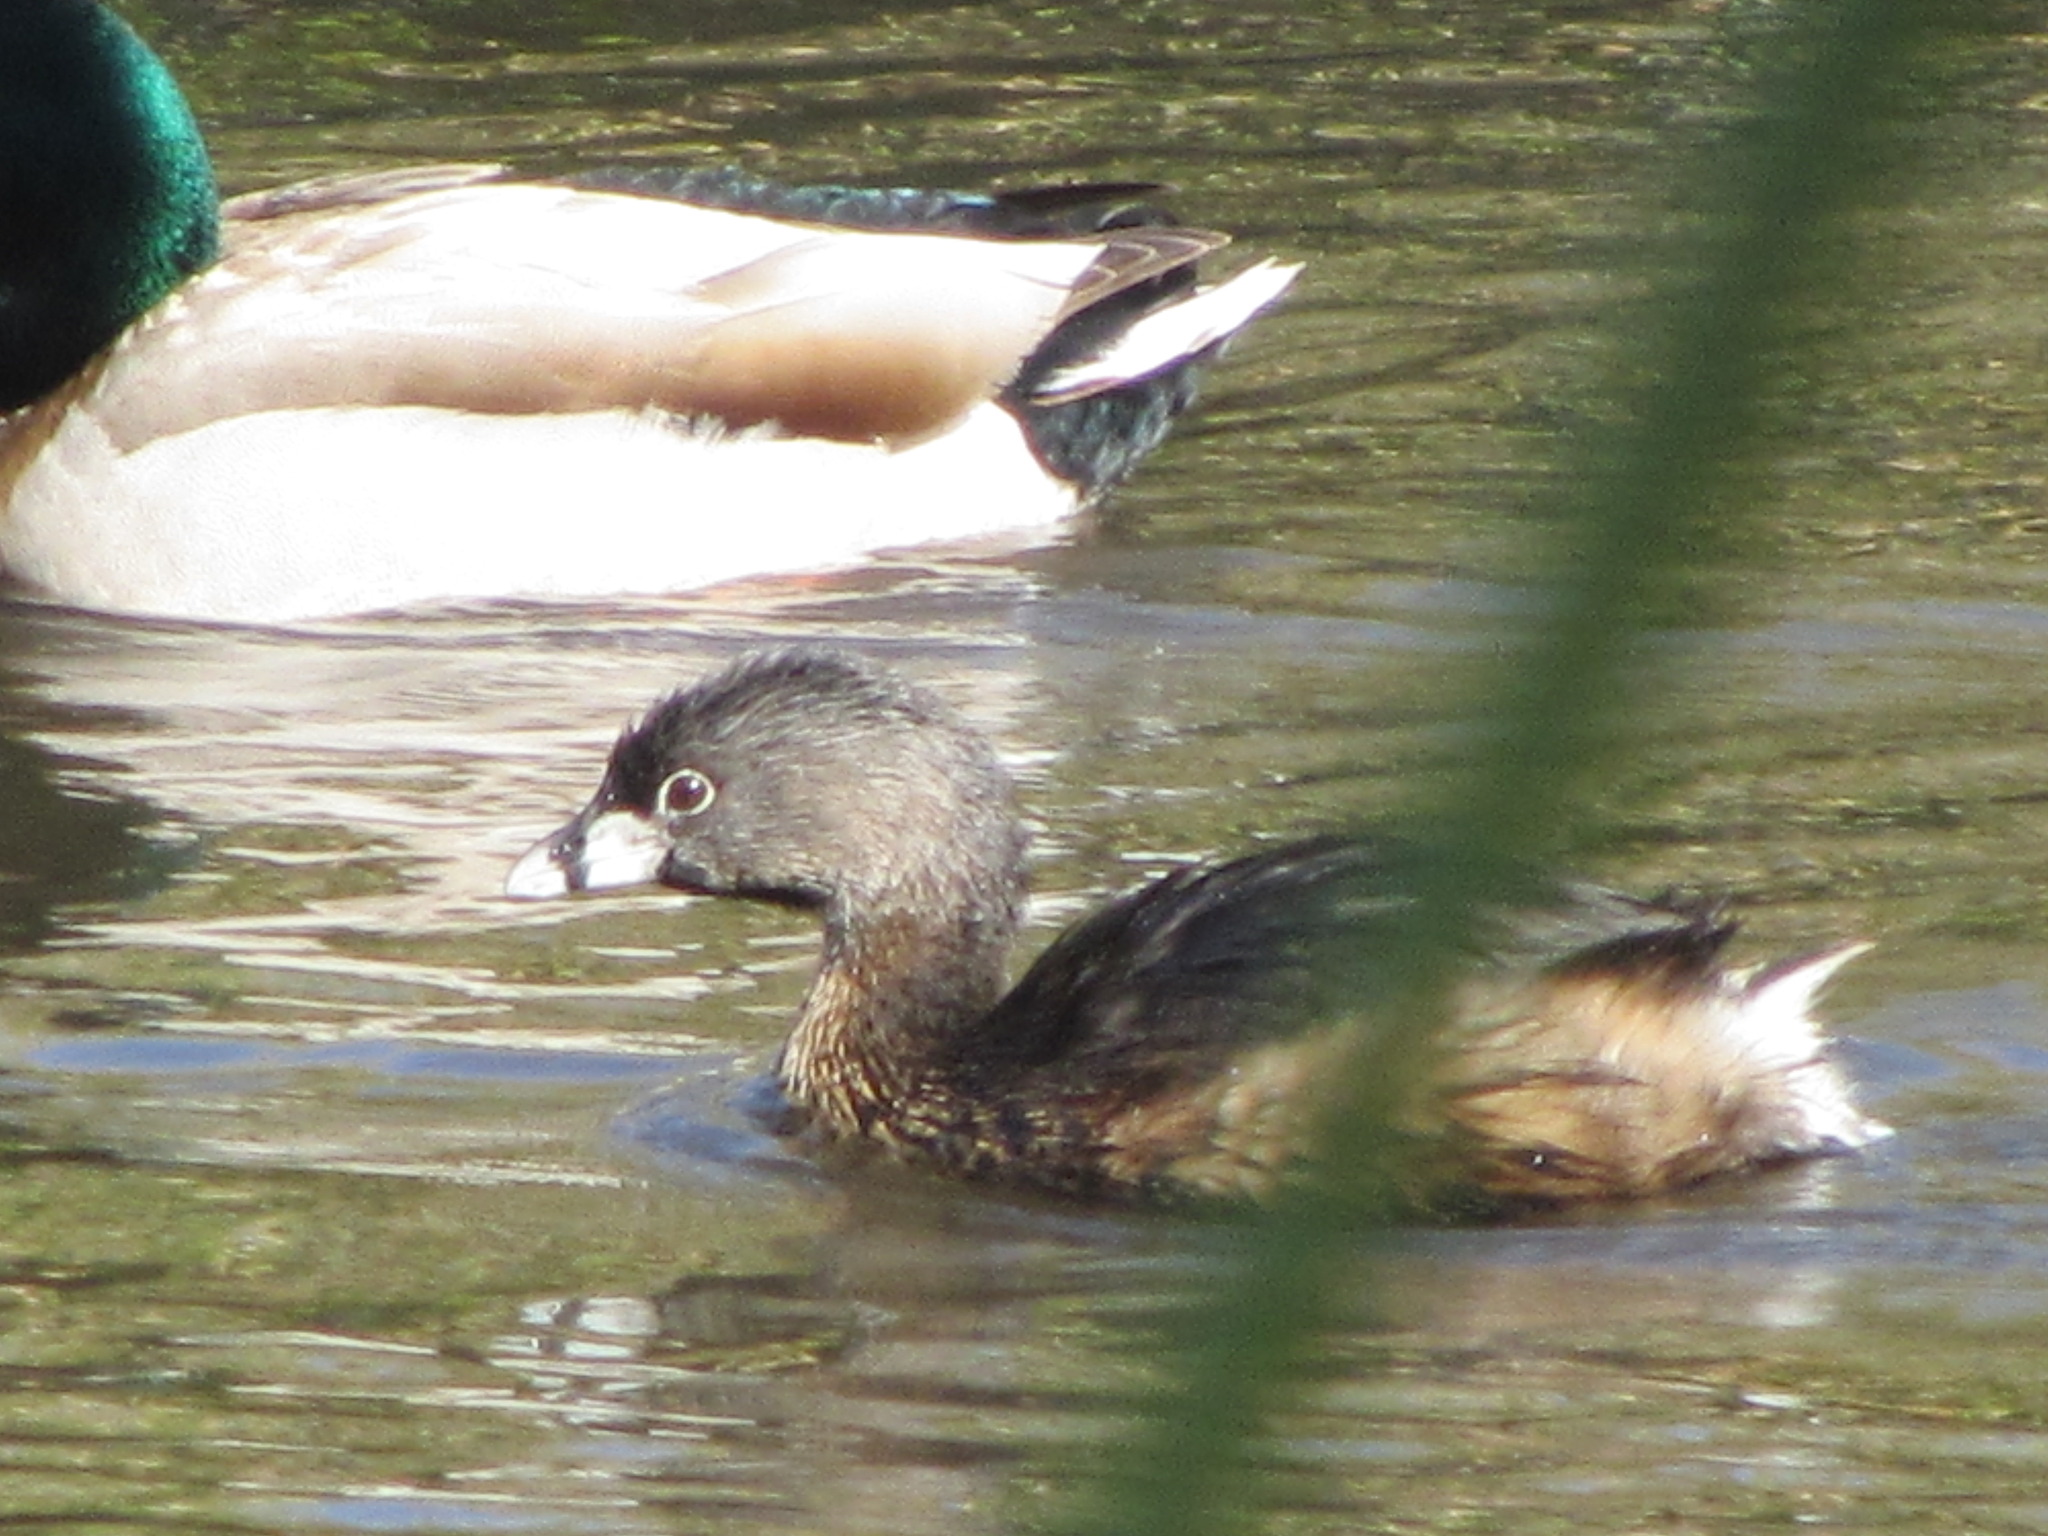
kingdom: Animalia
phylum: Chordata
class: Aves
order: Podicipediformes
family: Podicipedidae
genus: Podilymbus
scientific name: Podilymbus podiceps
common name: Pied-billed grebe
